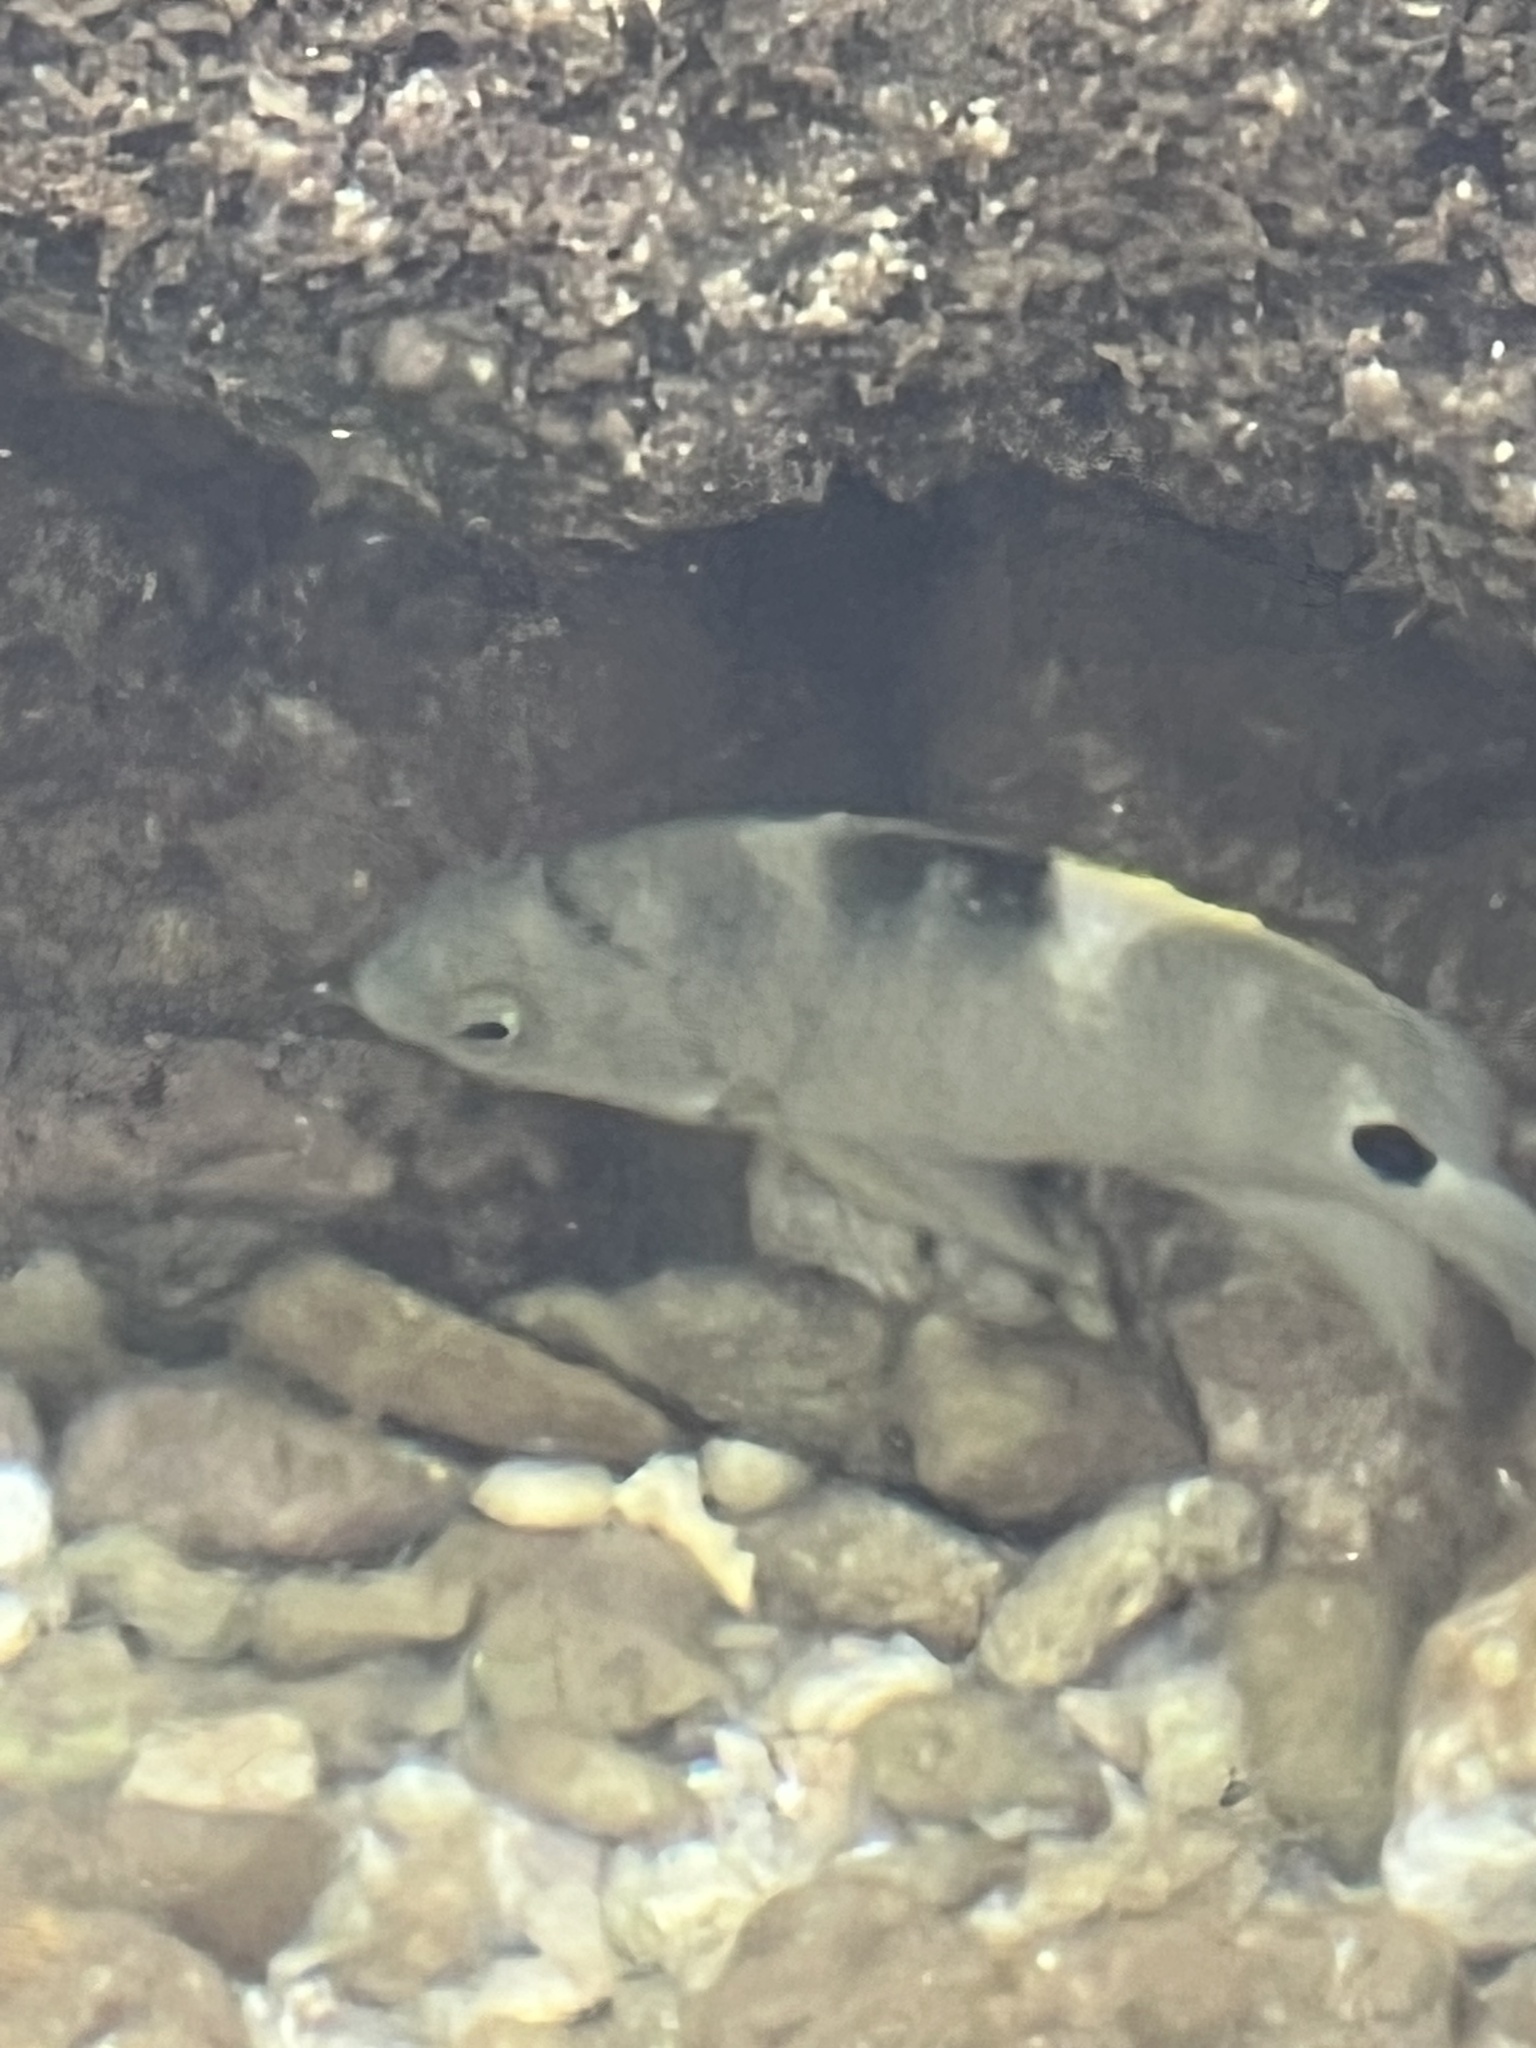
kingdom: Animalia
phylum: Chordata
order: Perciformes
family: Pomacentridae
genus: Abudefduf
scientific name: Abudefduf sordidus
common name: Blackspot sergeant
